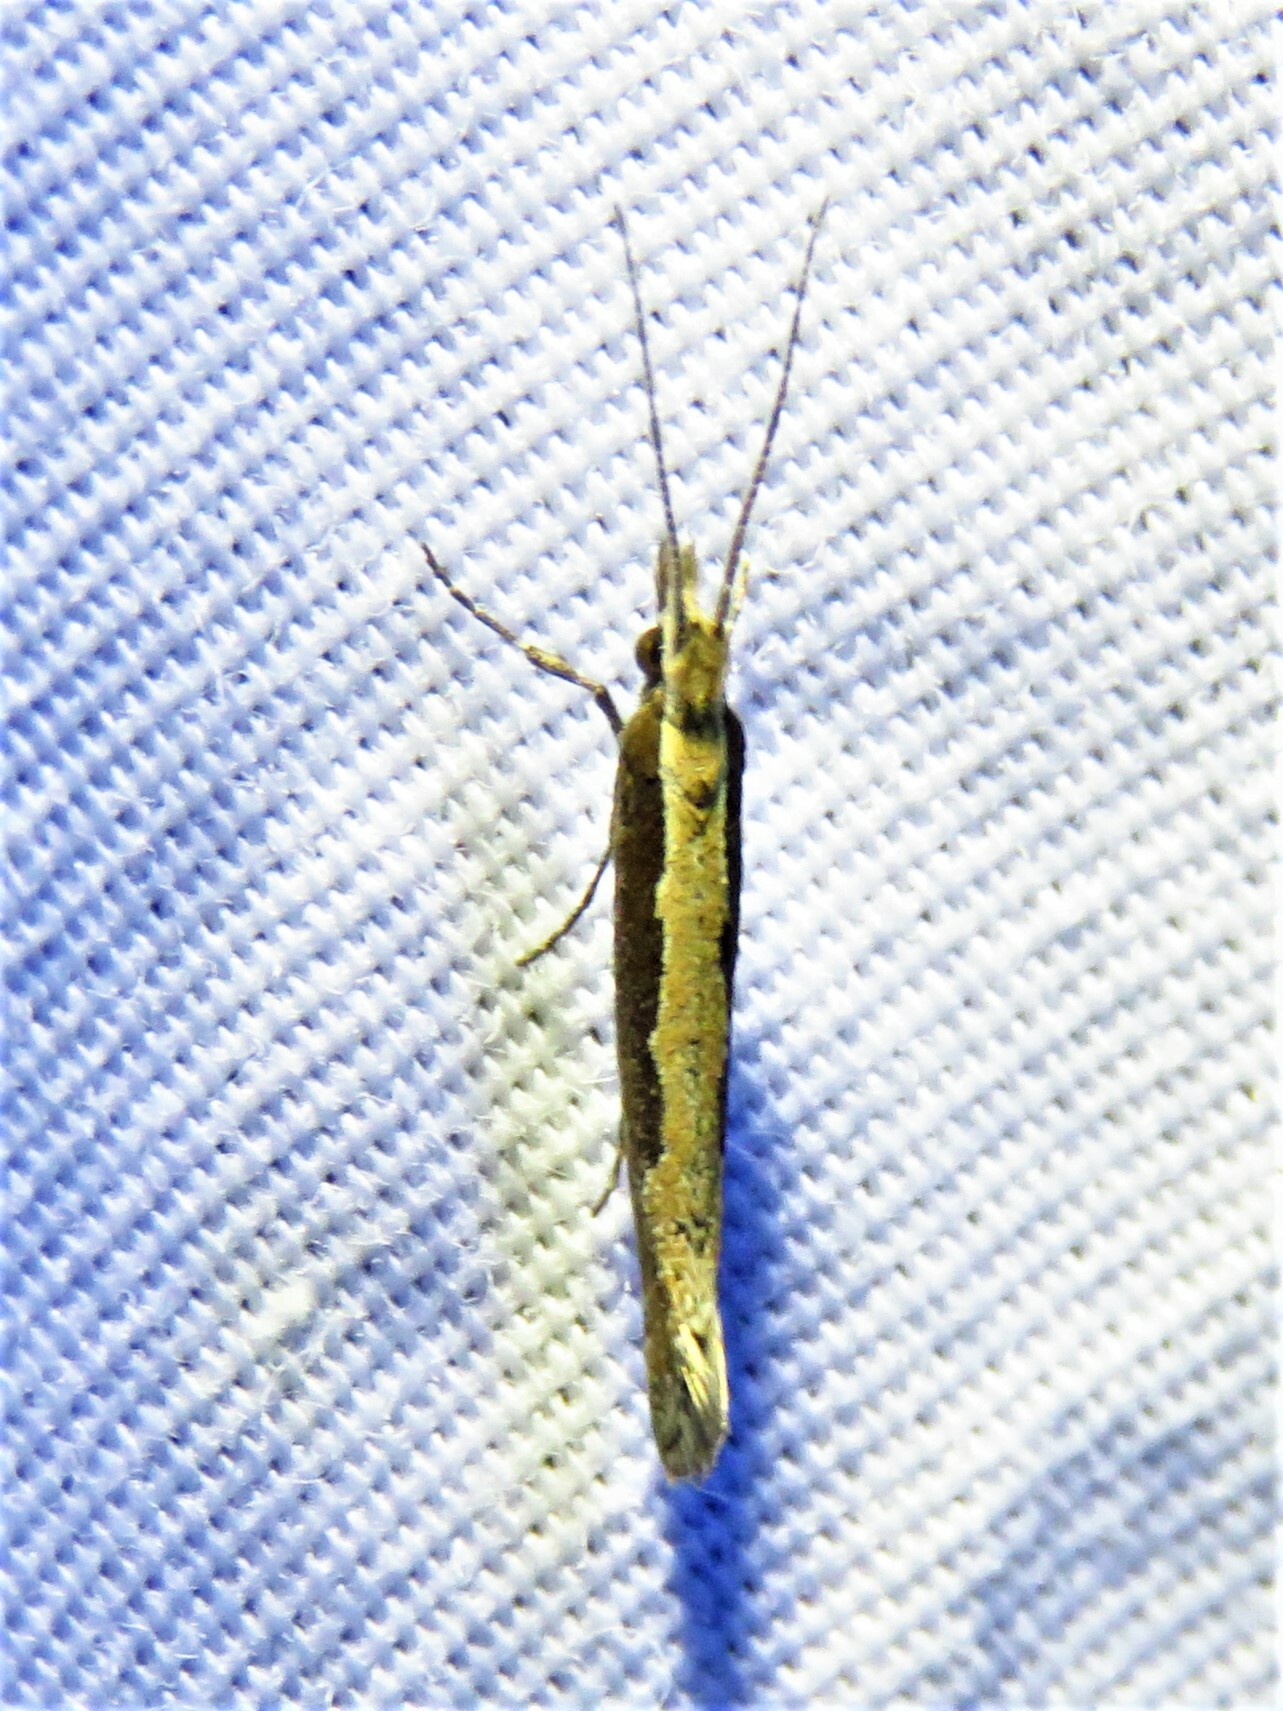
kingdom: Animalia
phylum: Arthropoda
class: Insecta
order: Lepidoptera
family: Plutellidae
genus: Plutella
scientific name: Plutella xylostella
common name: Diamond-back moth
